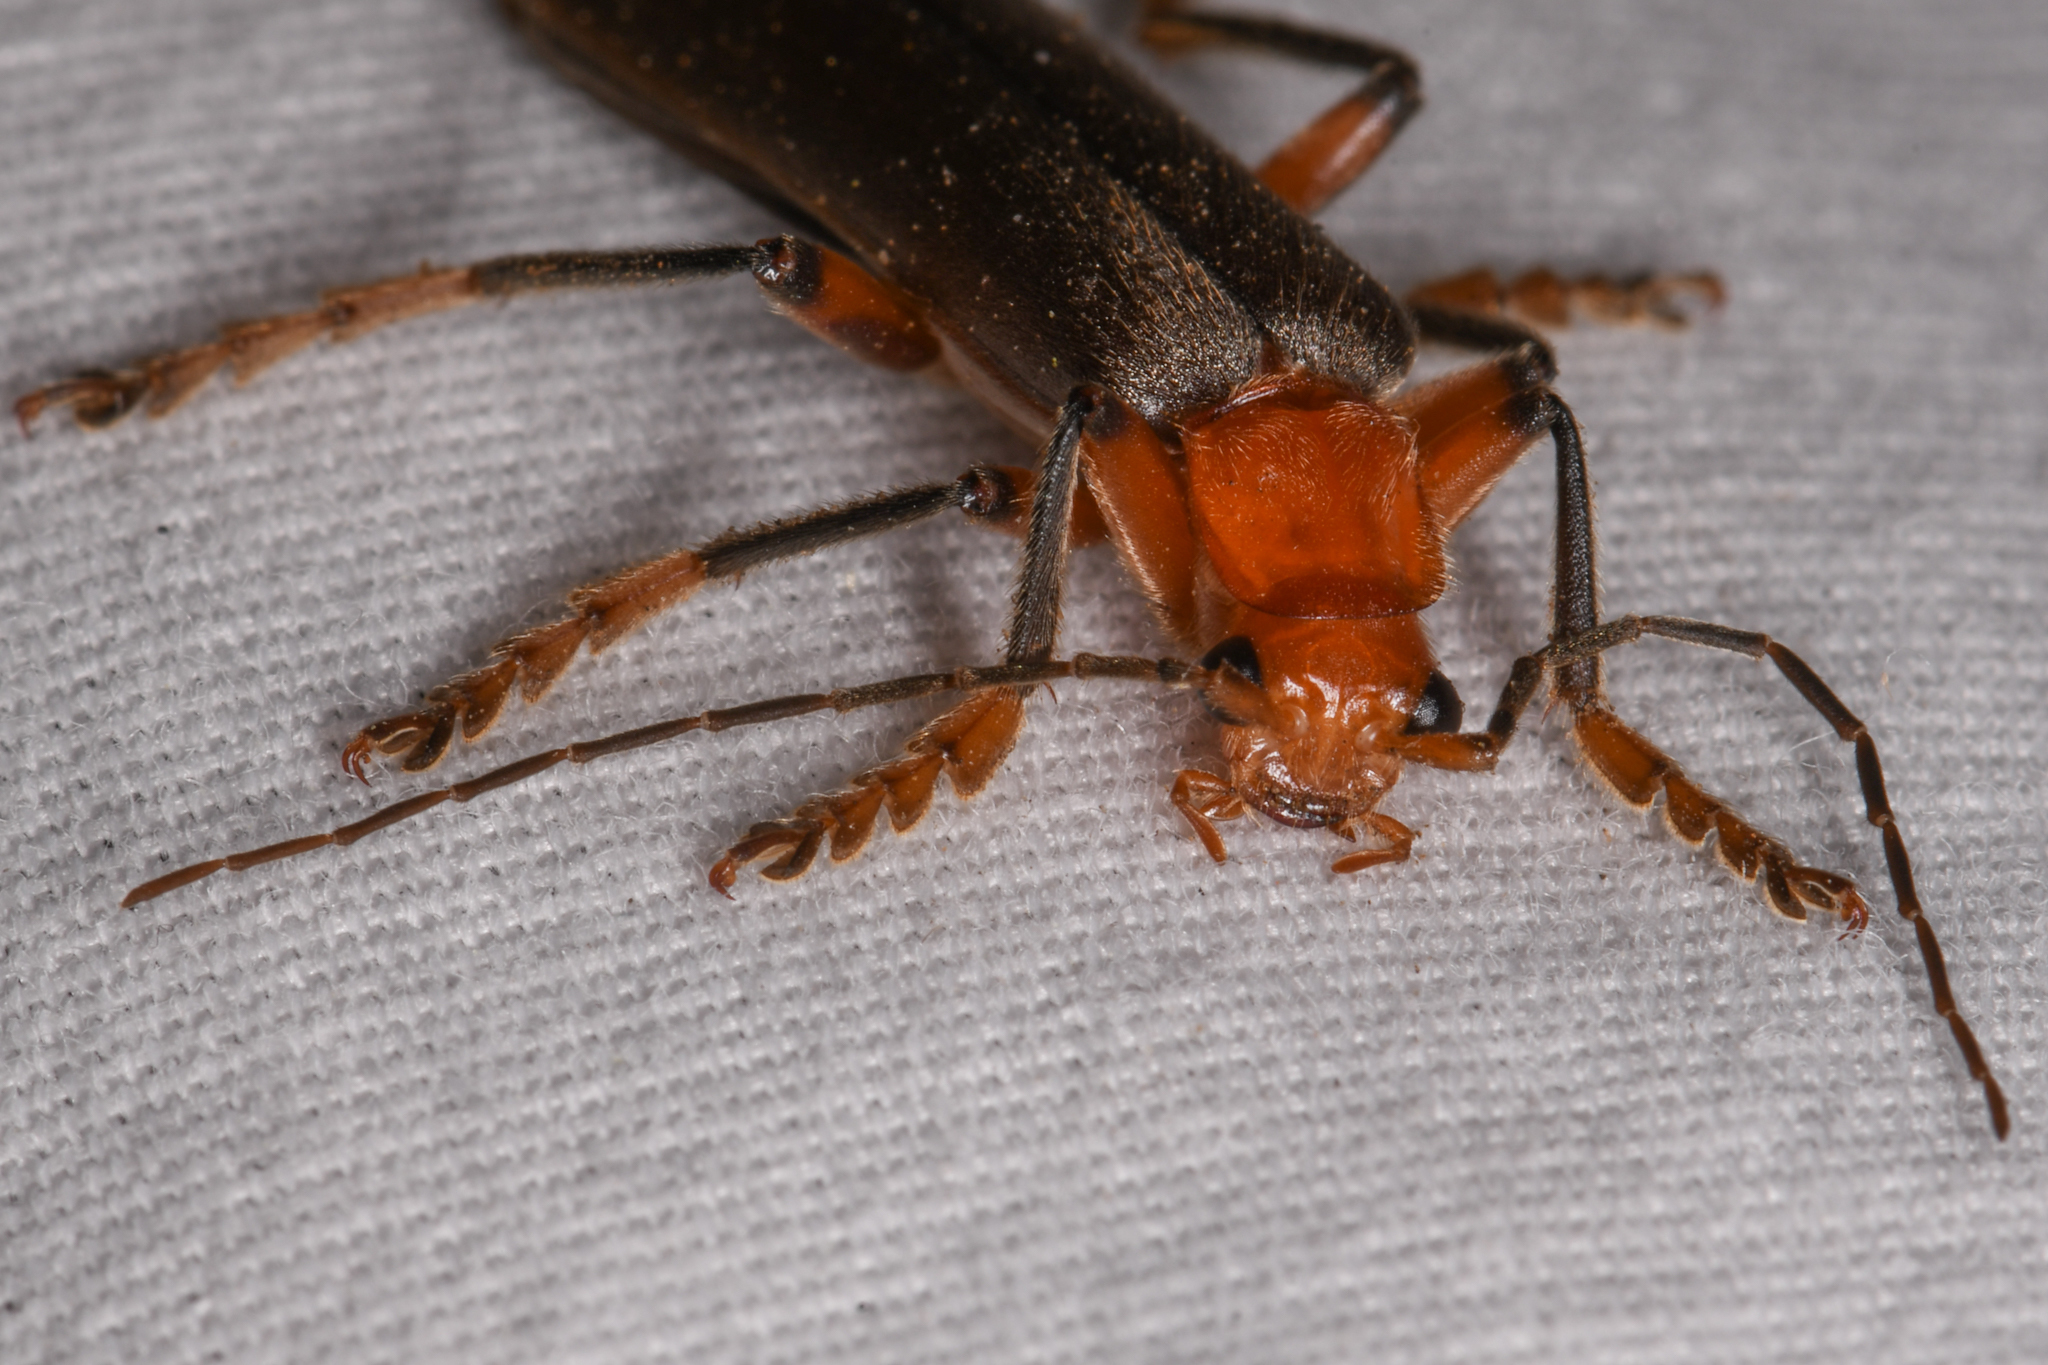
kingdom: Animalia
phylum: Arthropoda
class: Insecta
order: Coleoptera
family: Cantharidae
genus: Pacificanthia
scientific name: Pacificanthia consors
